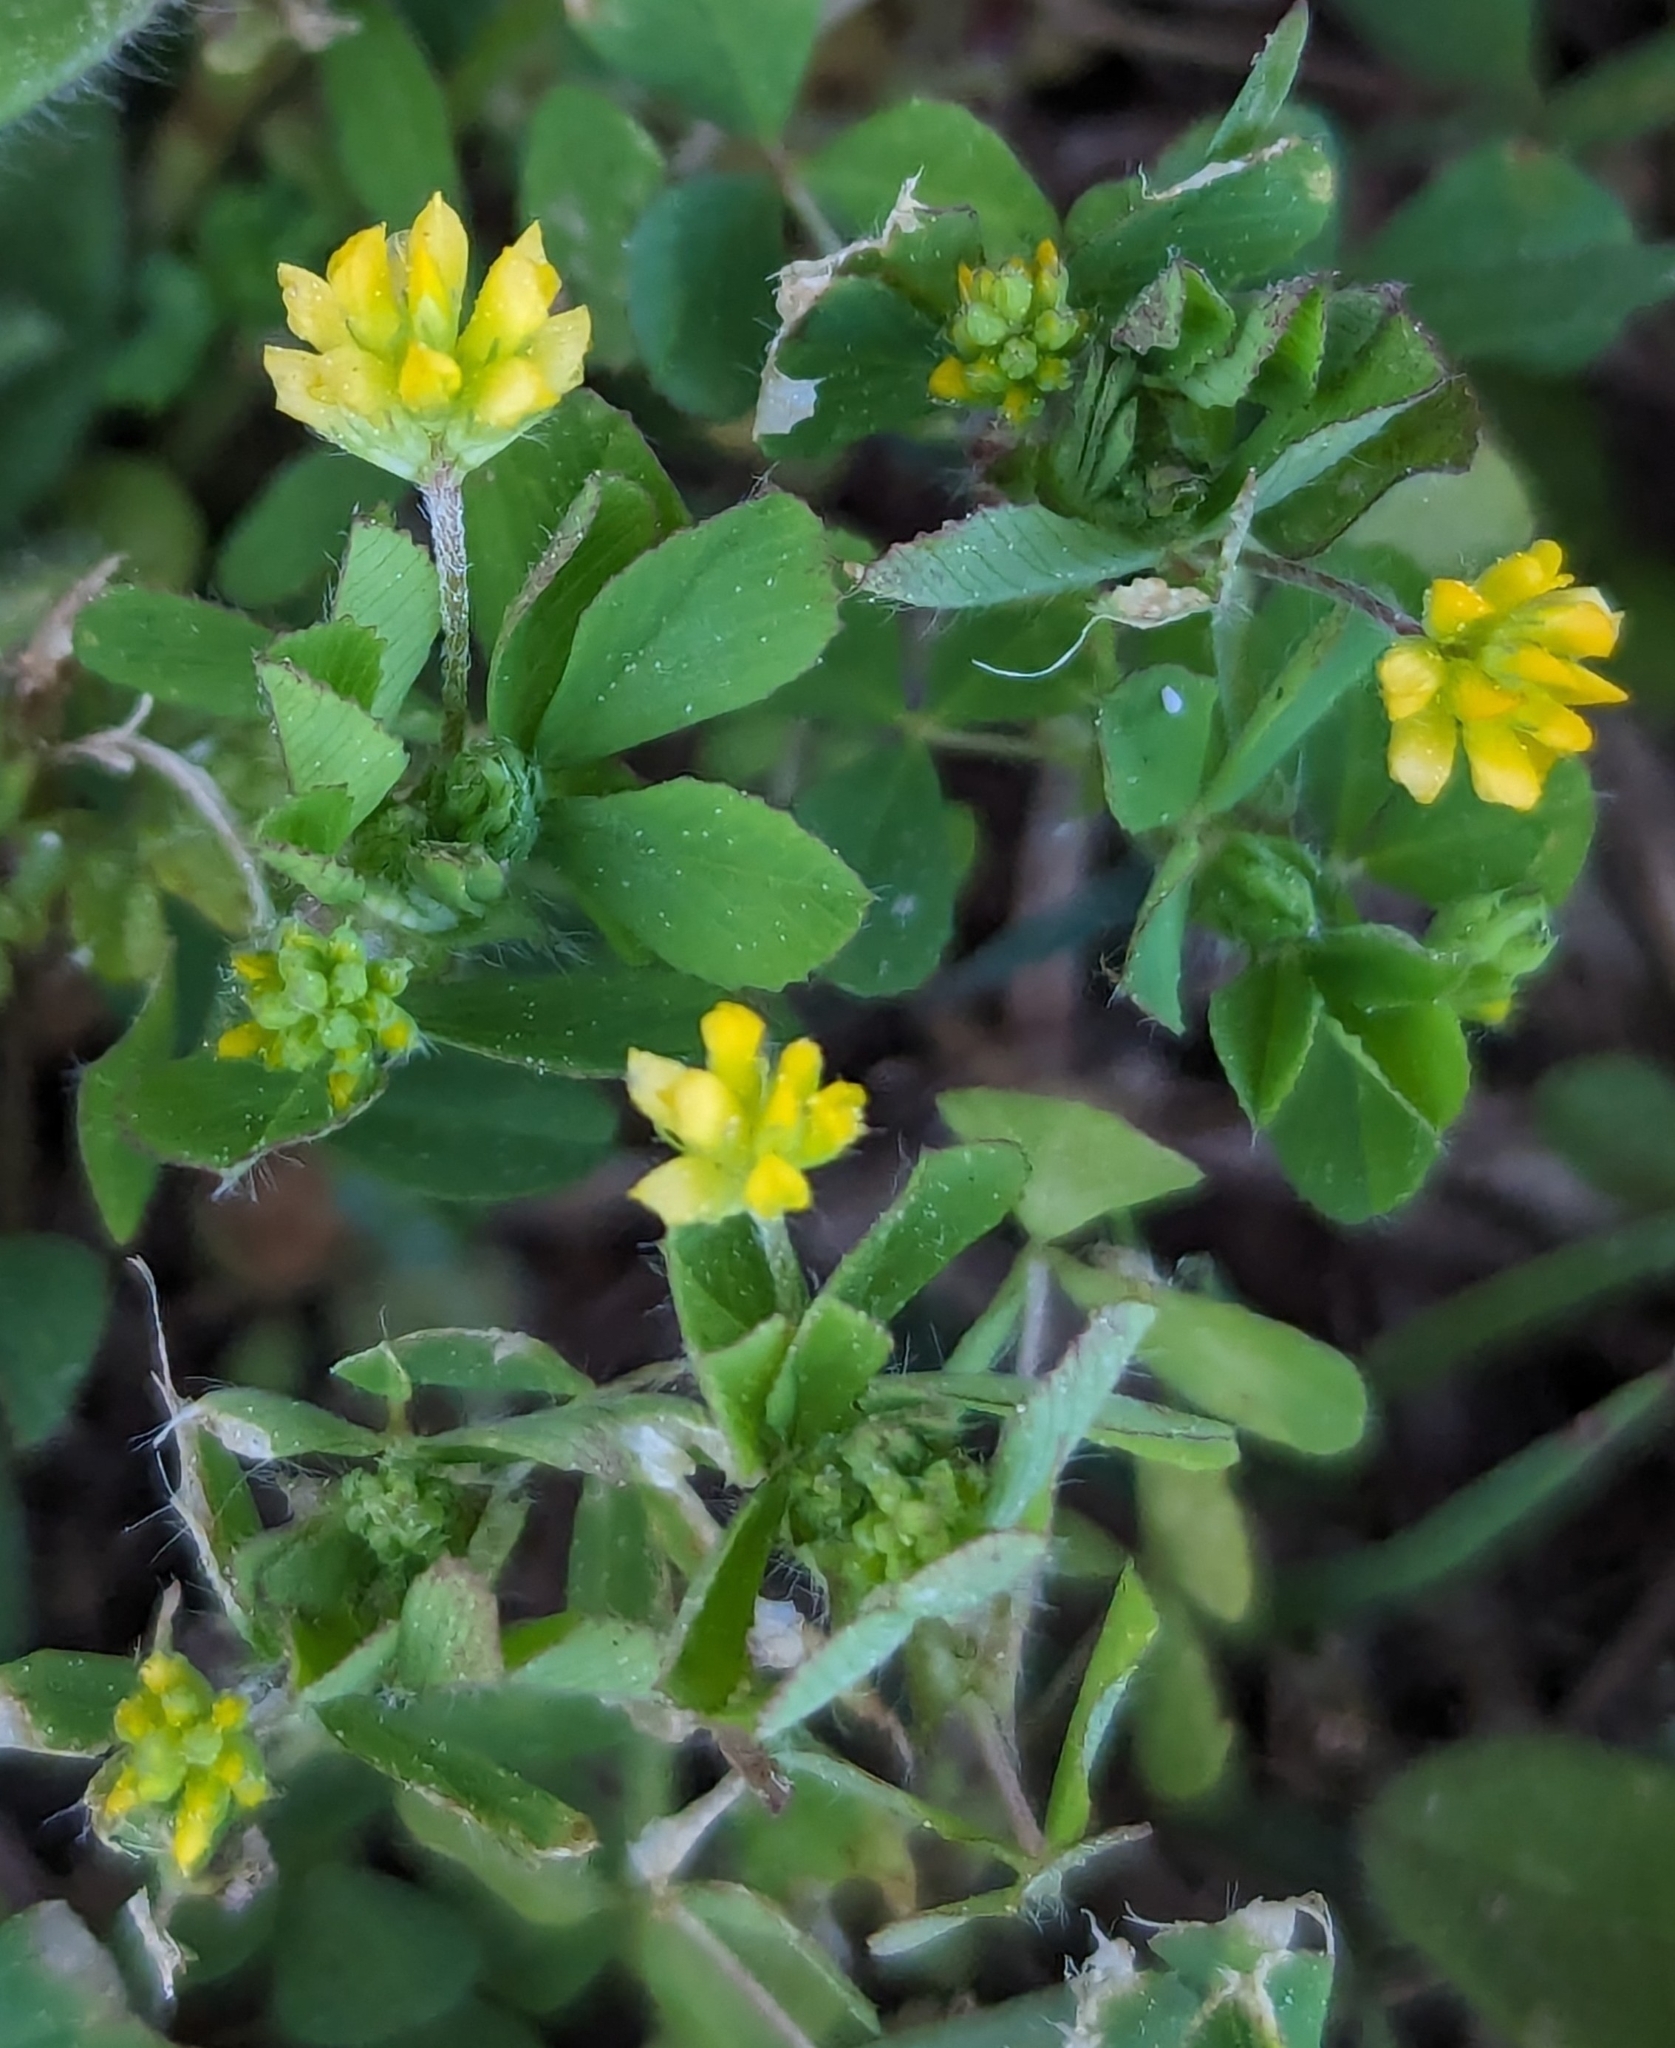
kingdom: Plantae
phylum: Tracheophyta
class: Magnoliopsida
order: Fabales
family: Fabaceae
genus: Trifolium
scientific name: Trifolium dubium
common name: Suckling clover
